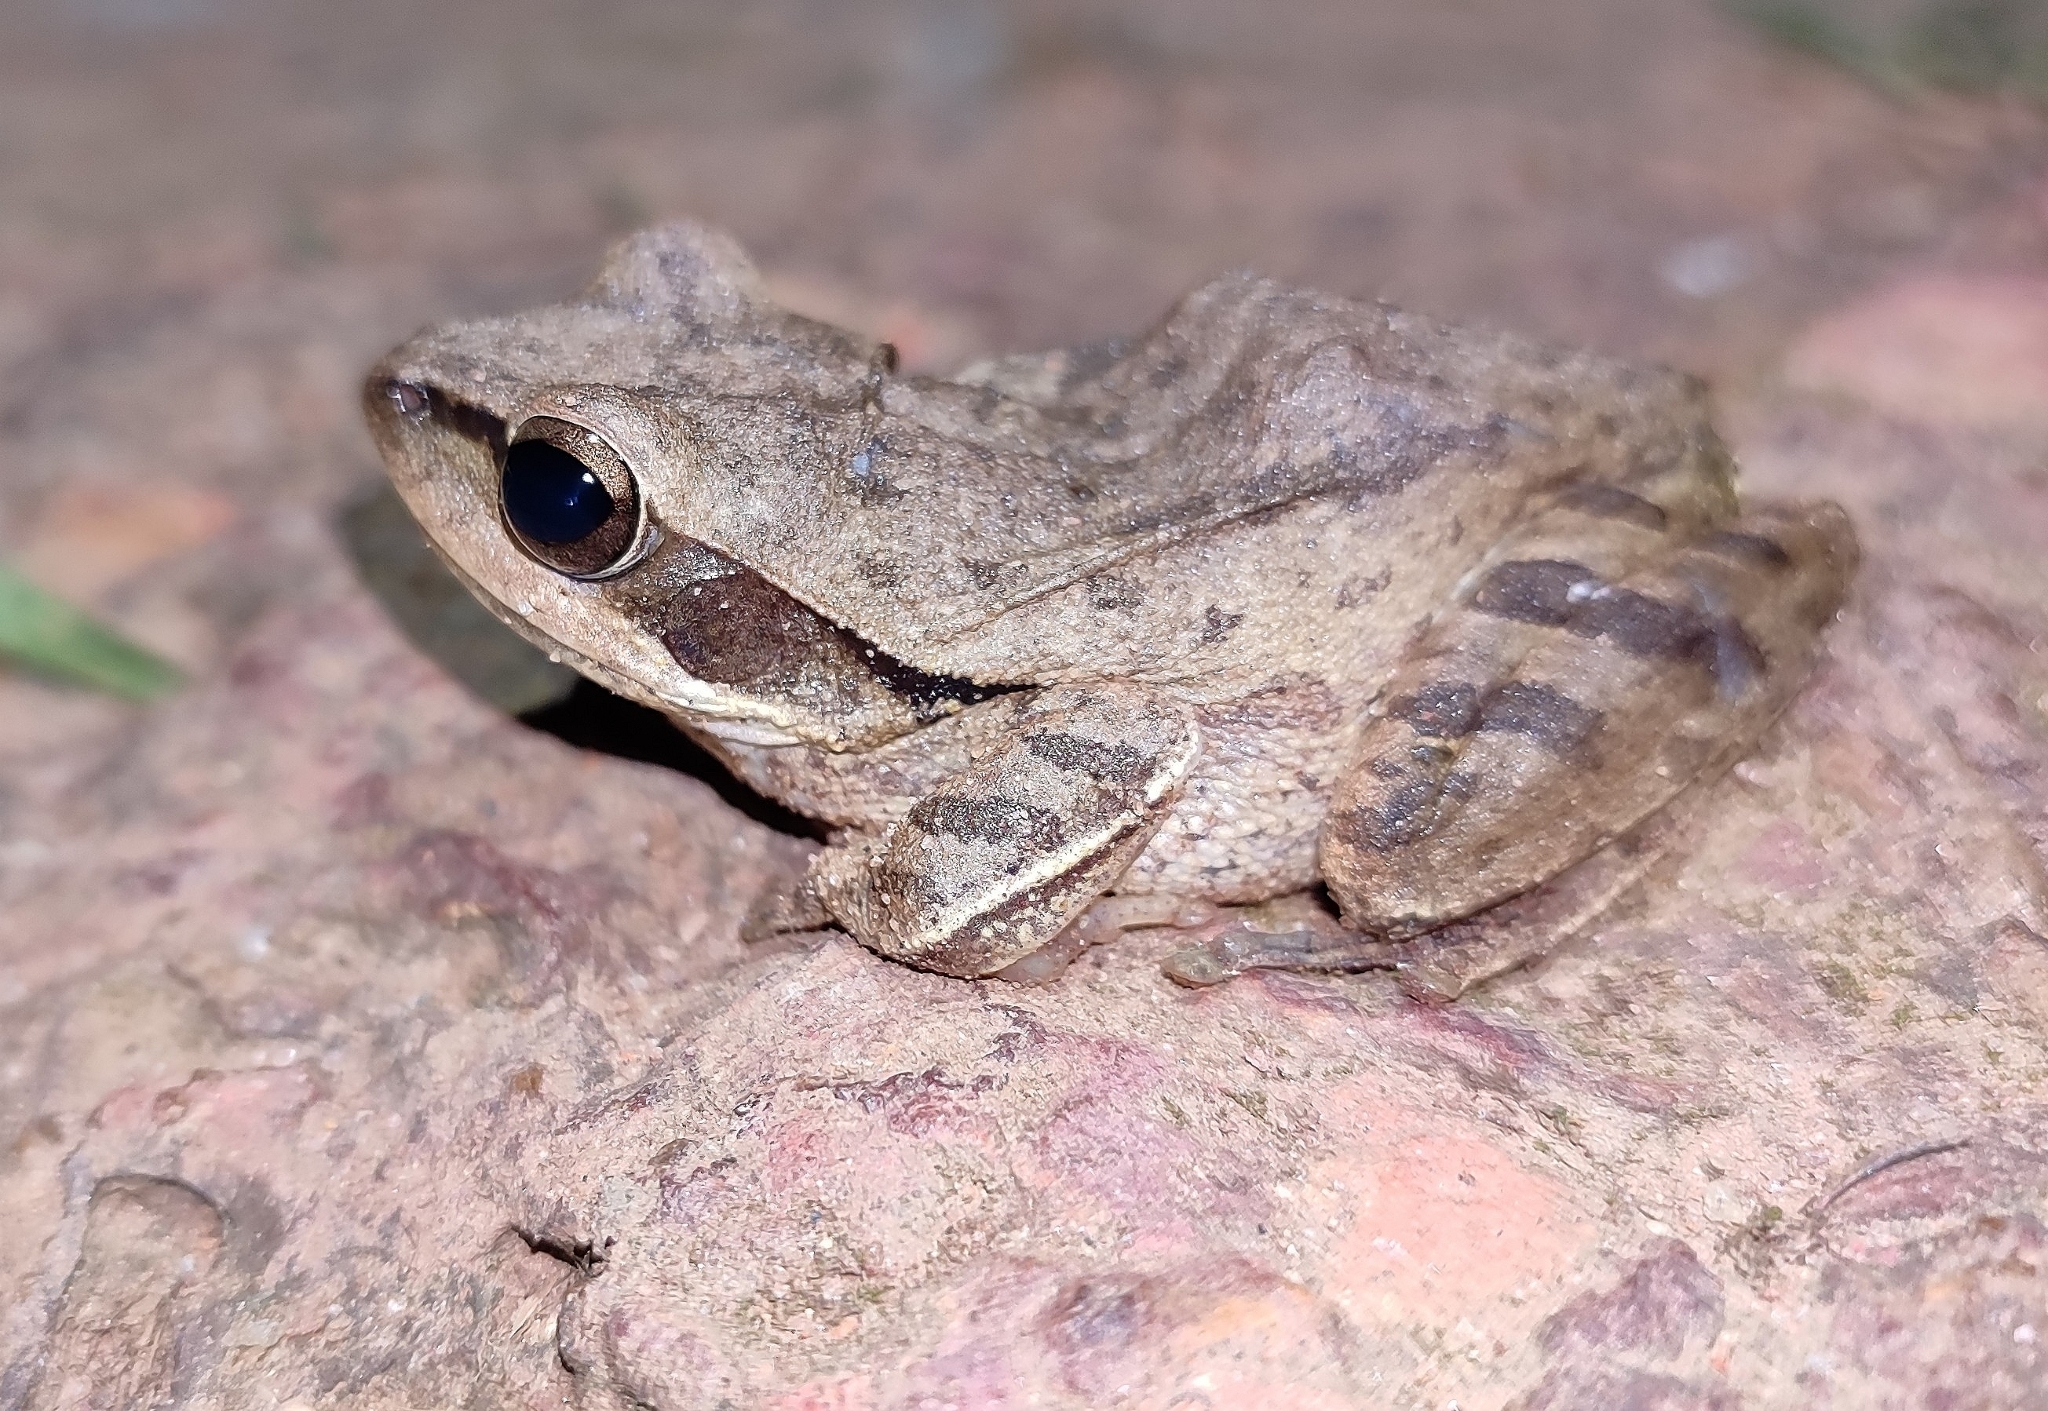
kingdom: Animalia
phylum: Chordata
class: Amphibia
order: Anura
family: Rhacophoridae
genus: Polypedates
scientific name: Polypedates maculatus
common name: Himalayan tree frog
